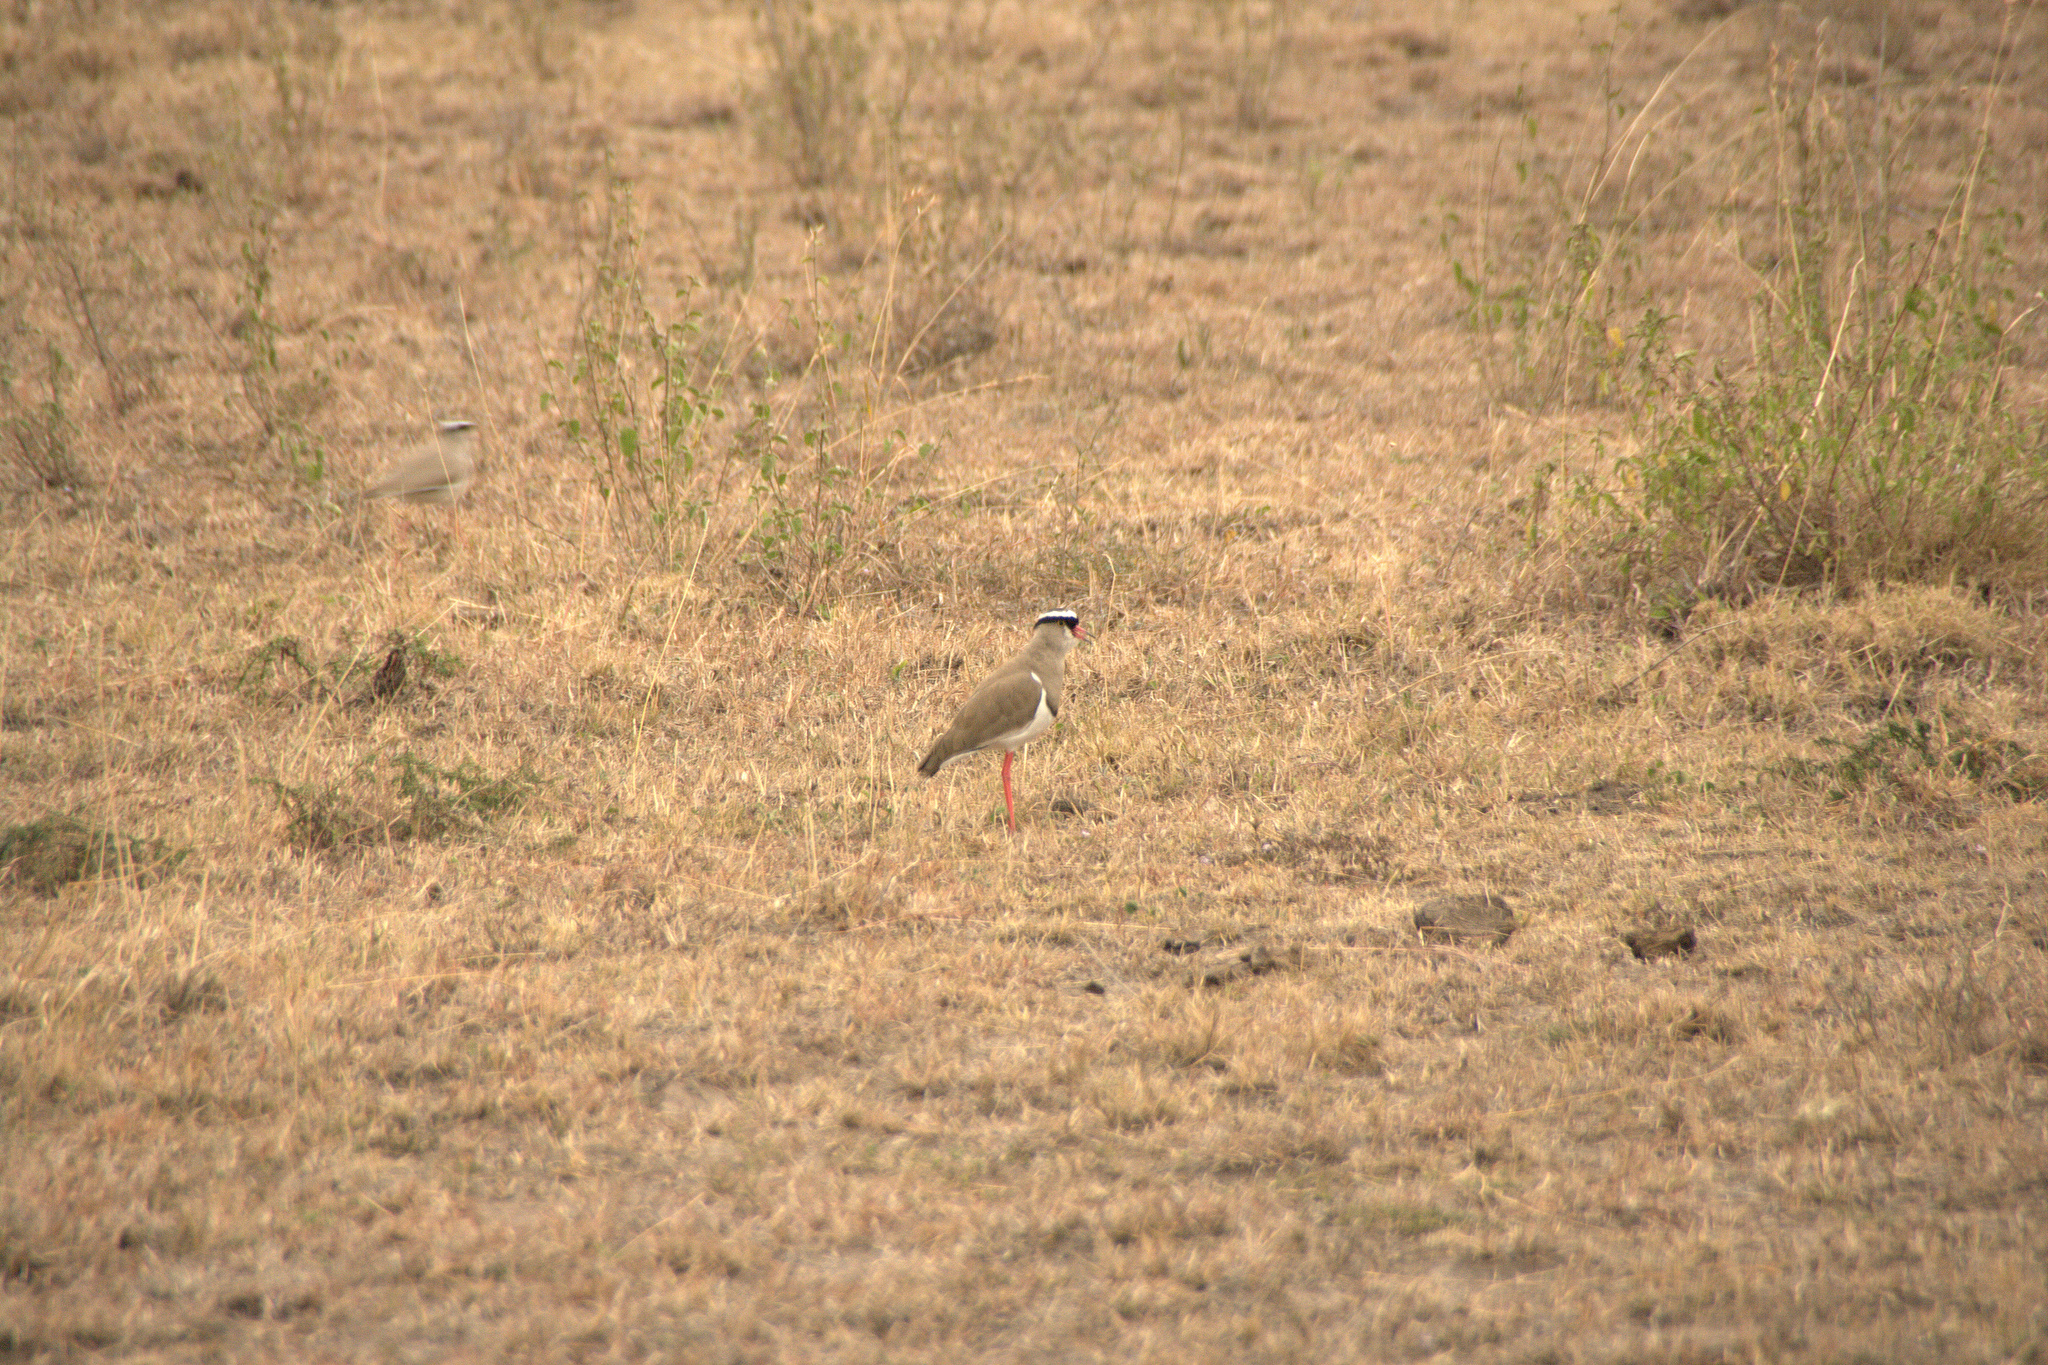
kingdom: Animalia
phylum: Chordata
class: Aves
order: Charadriiformes
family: Charadriidae
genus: Vanellus
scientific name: Vanellus coronatus
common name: Crowned lapwing
